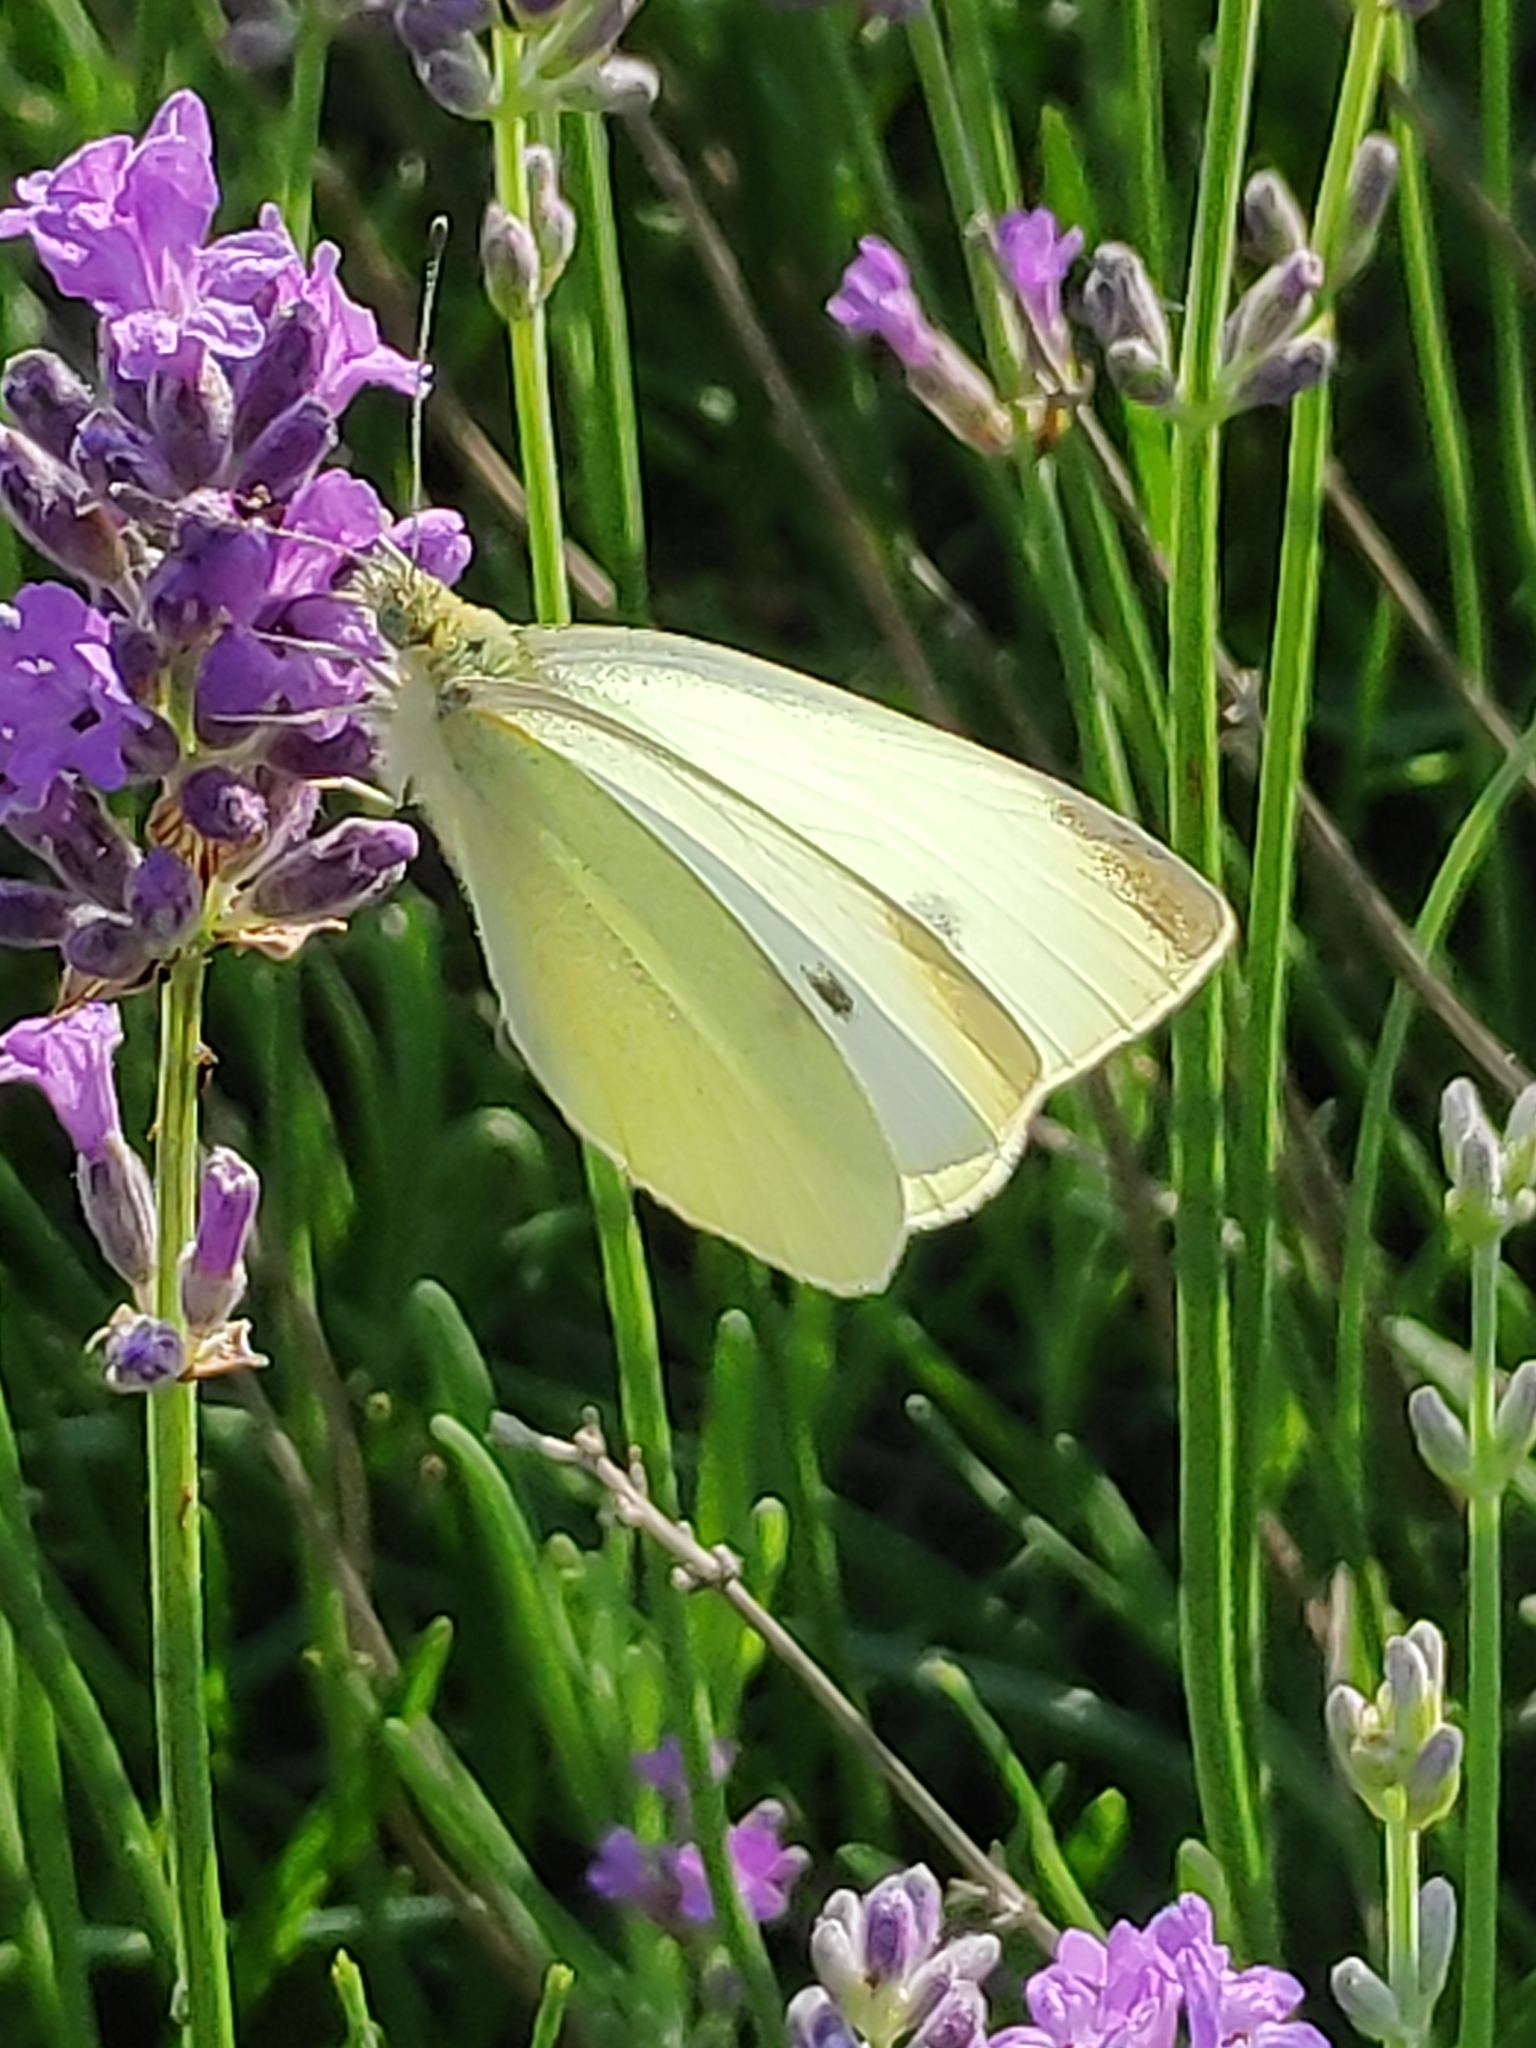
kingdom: Animalia
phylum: Arthropoda
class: Insecta
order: Lepidoptera
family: Pieridae
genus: Pieris
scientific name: Pieris rapae
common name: Small white
